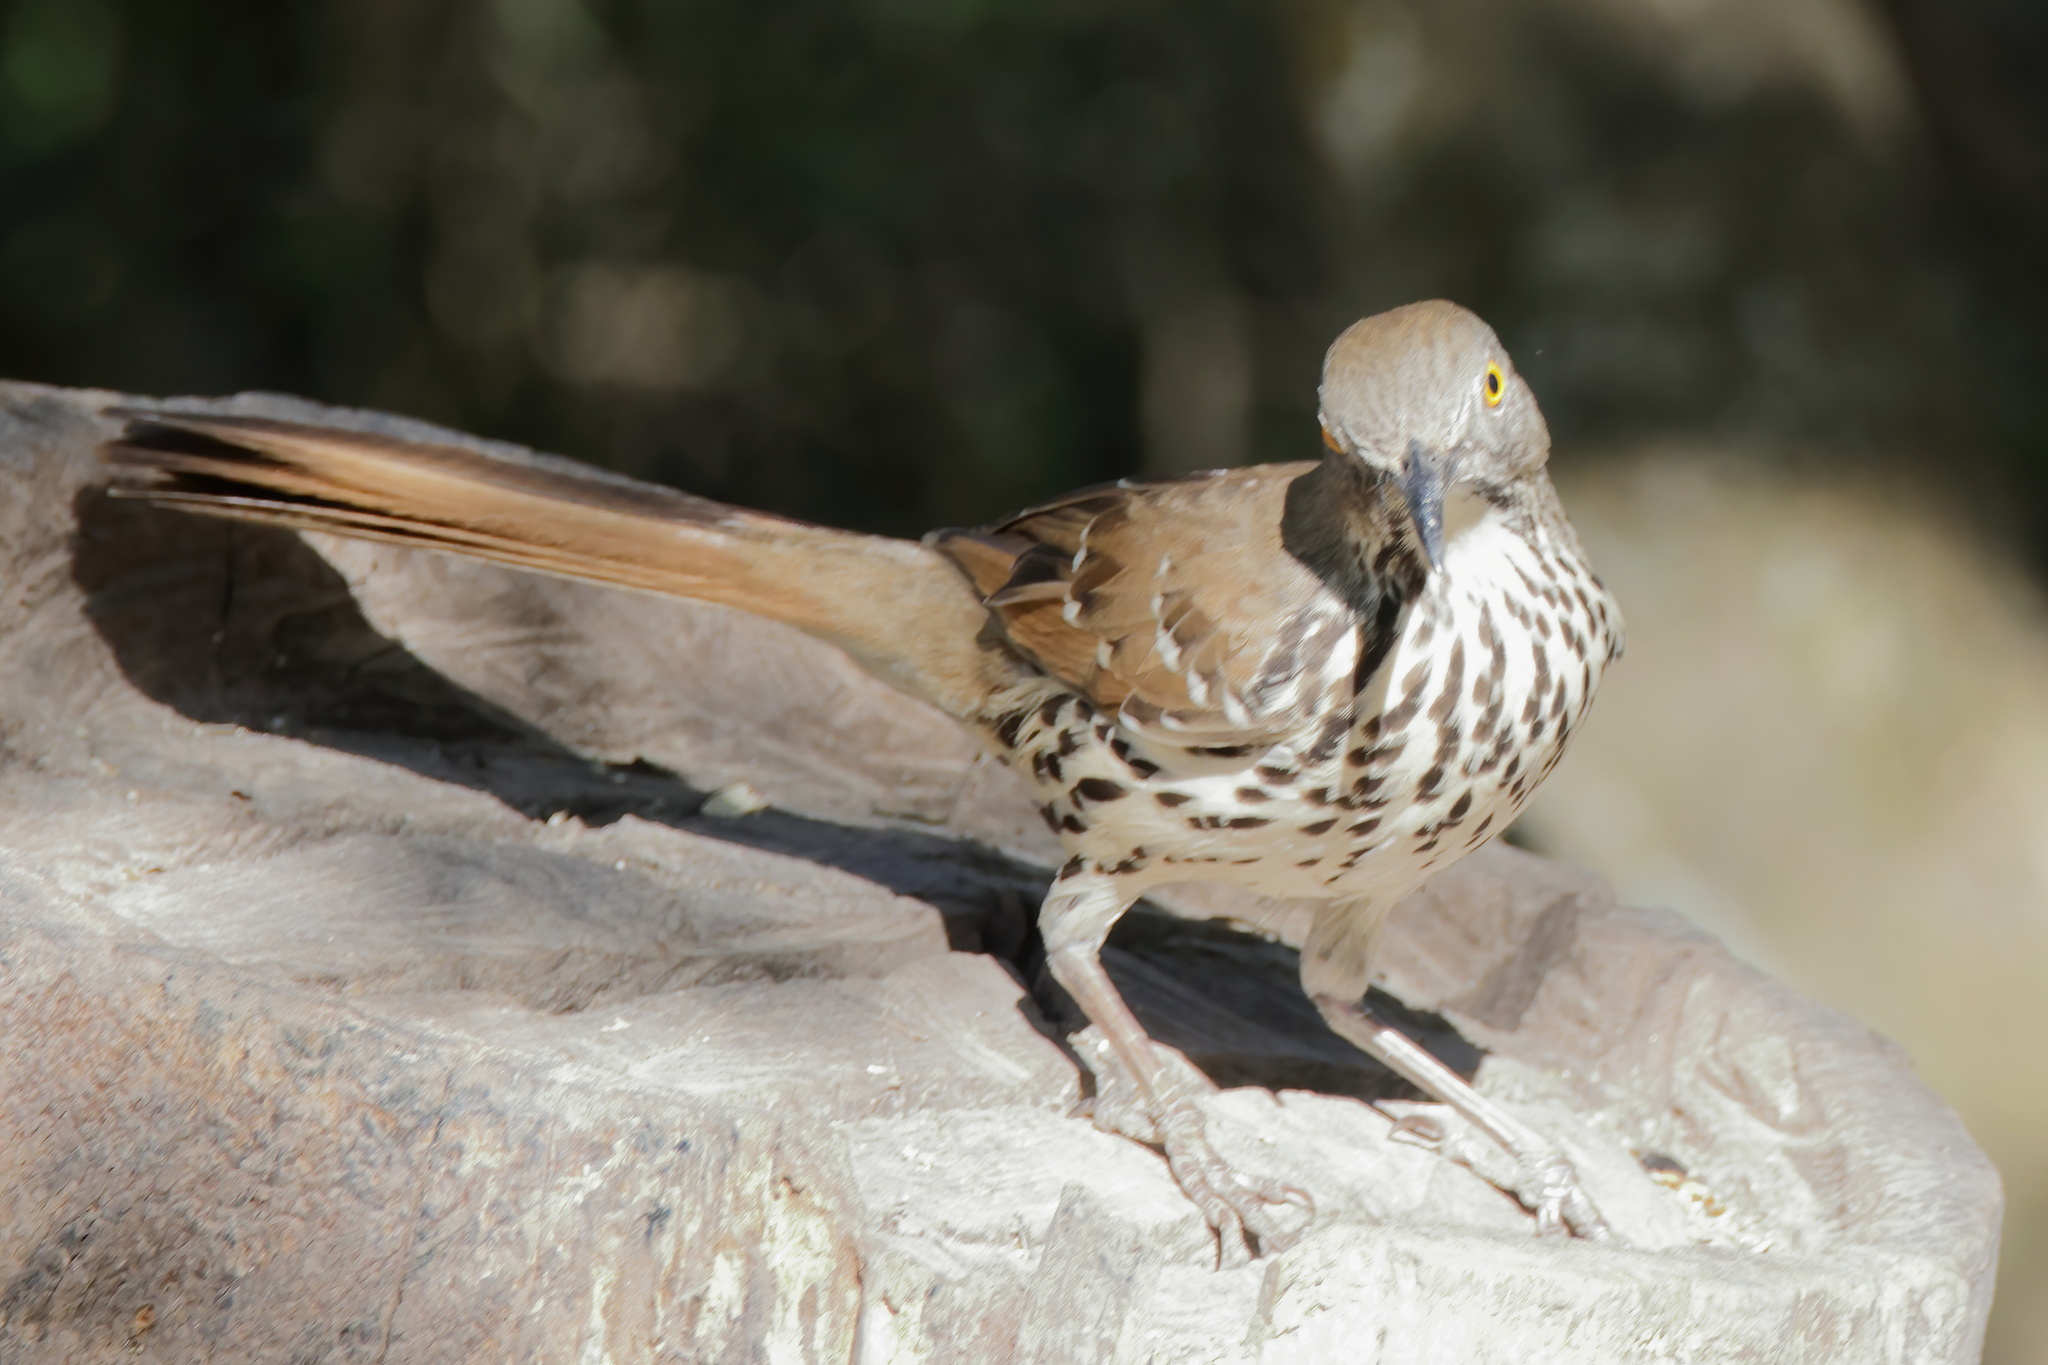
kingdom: Animalia
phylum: Chordata
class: Aves
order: Passeriformes
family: Mimidae
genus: Toxostoma
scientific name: Toxostoma longirostre
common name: Long-billed thrasher
